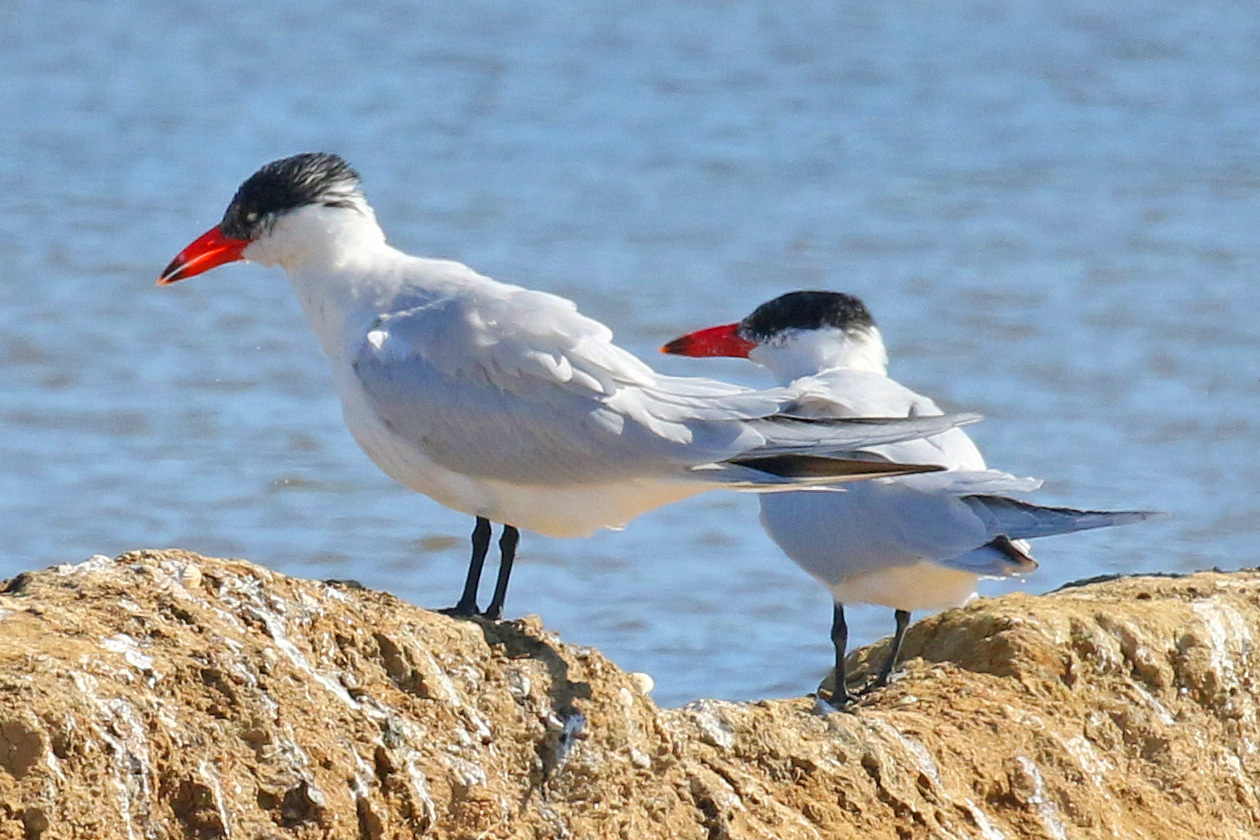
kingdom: Animalia
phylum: Chordata
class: Aves
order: Charadriiformes
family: Laridae
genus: Hydroprogne
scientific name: Hydroprogne caspia
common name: Caspian tern
